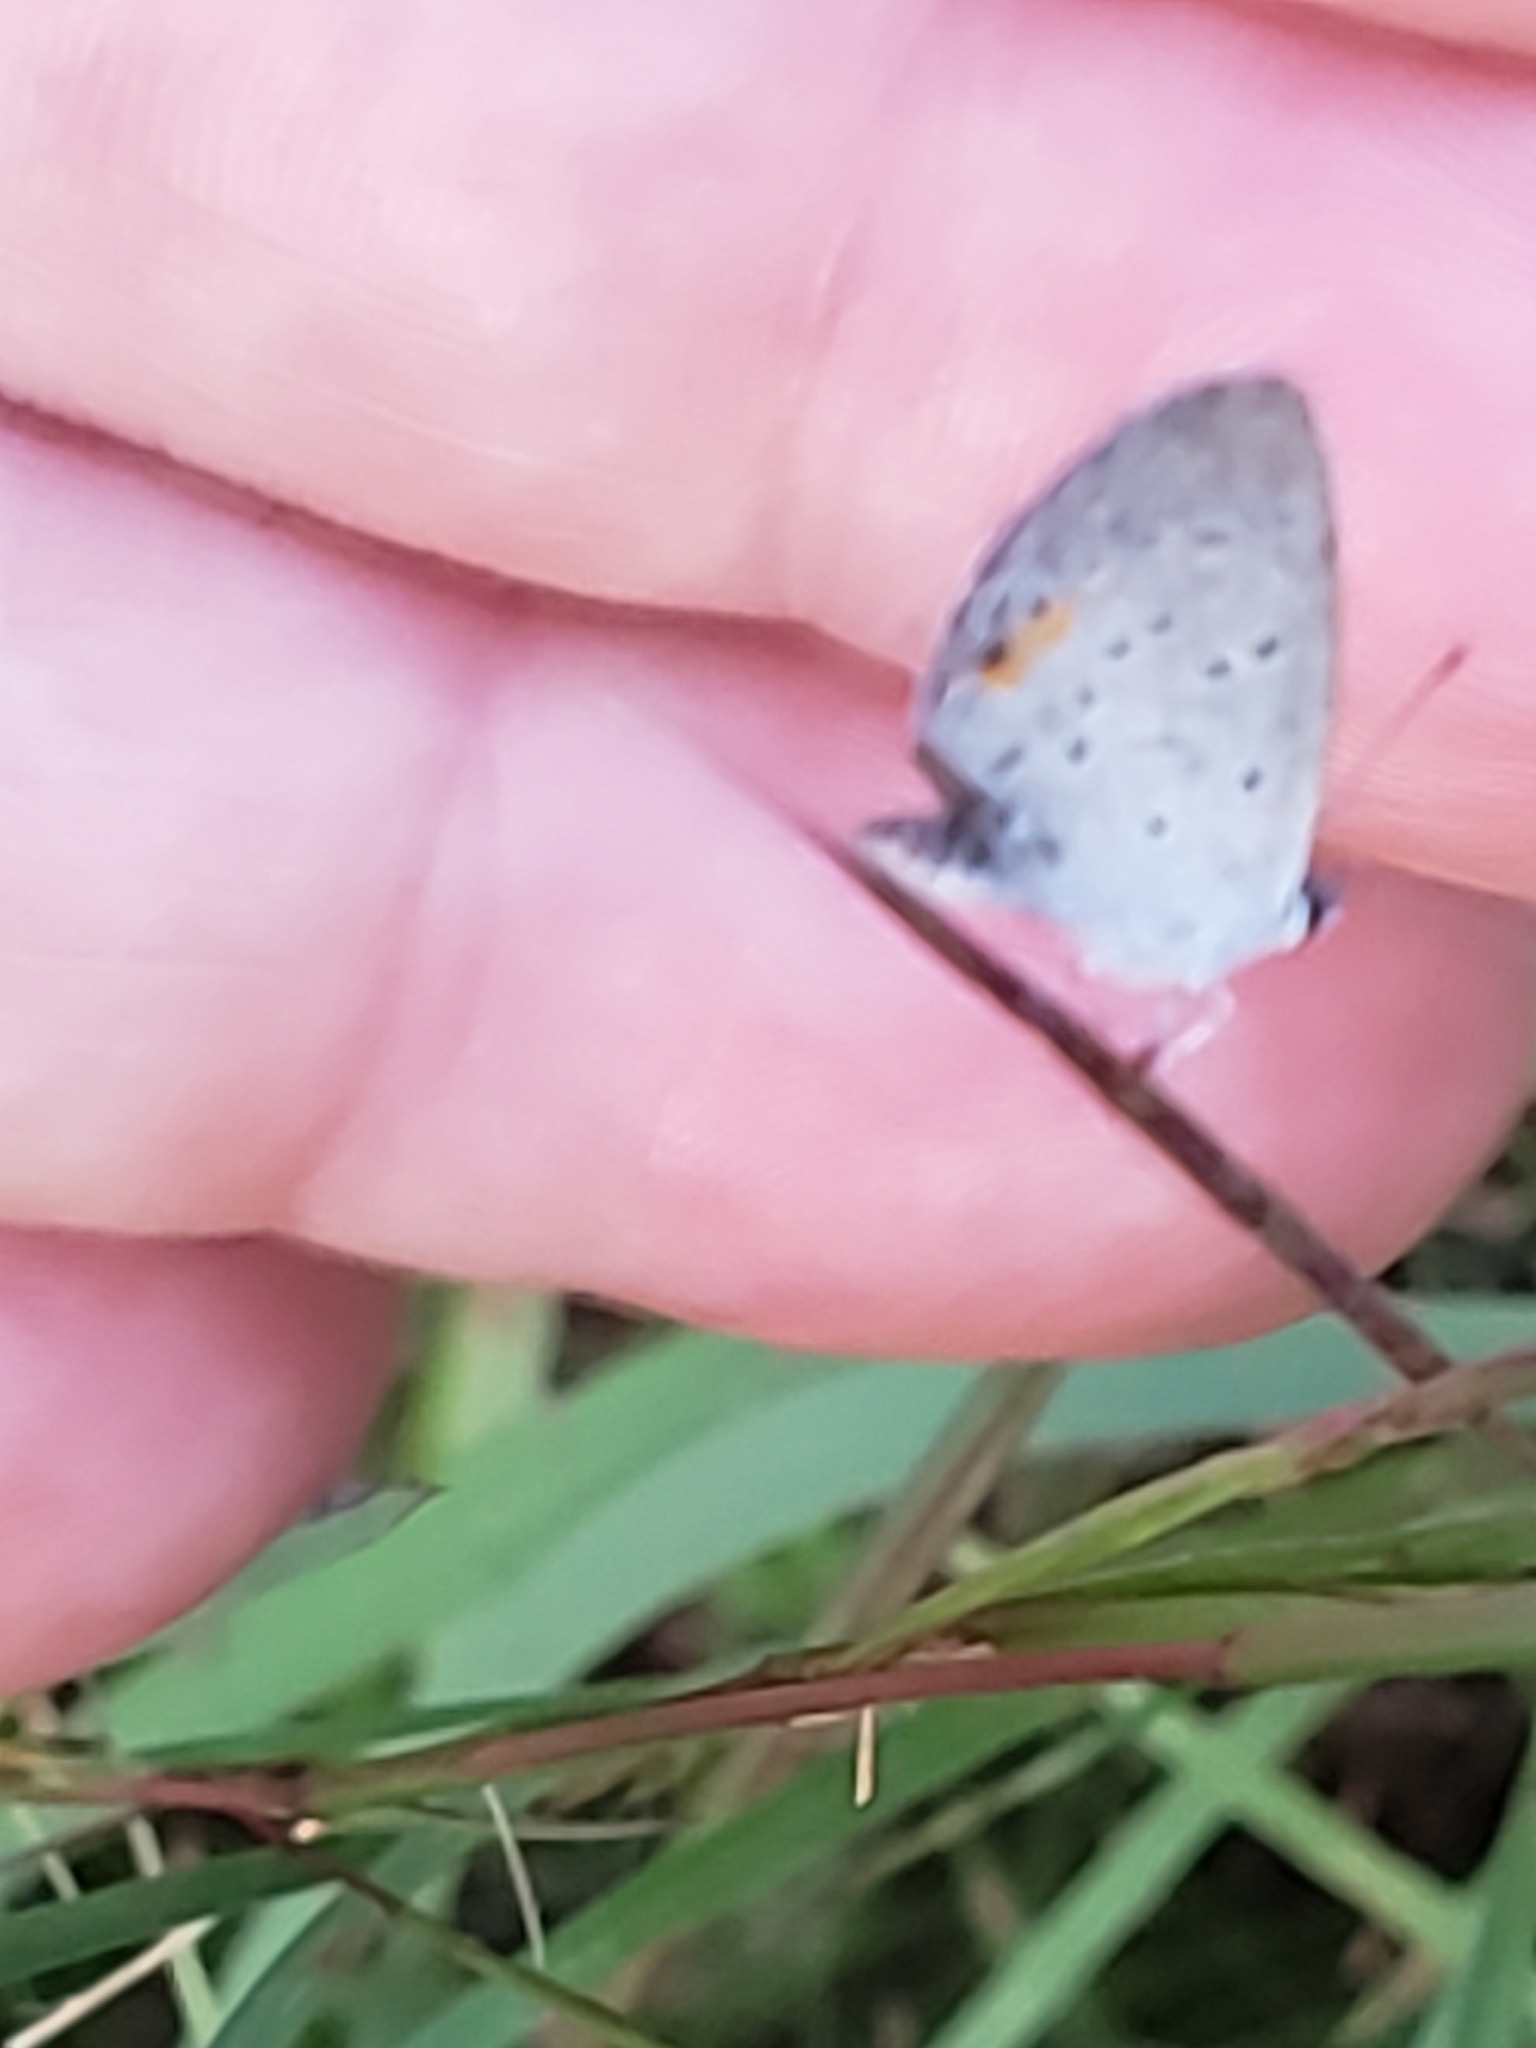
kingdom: Animalia
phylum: Arthropoda
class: Insecta
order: Lepidoptera
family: Lycaenidae
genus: Elkalyce
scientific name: Elkalyce comyntas
